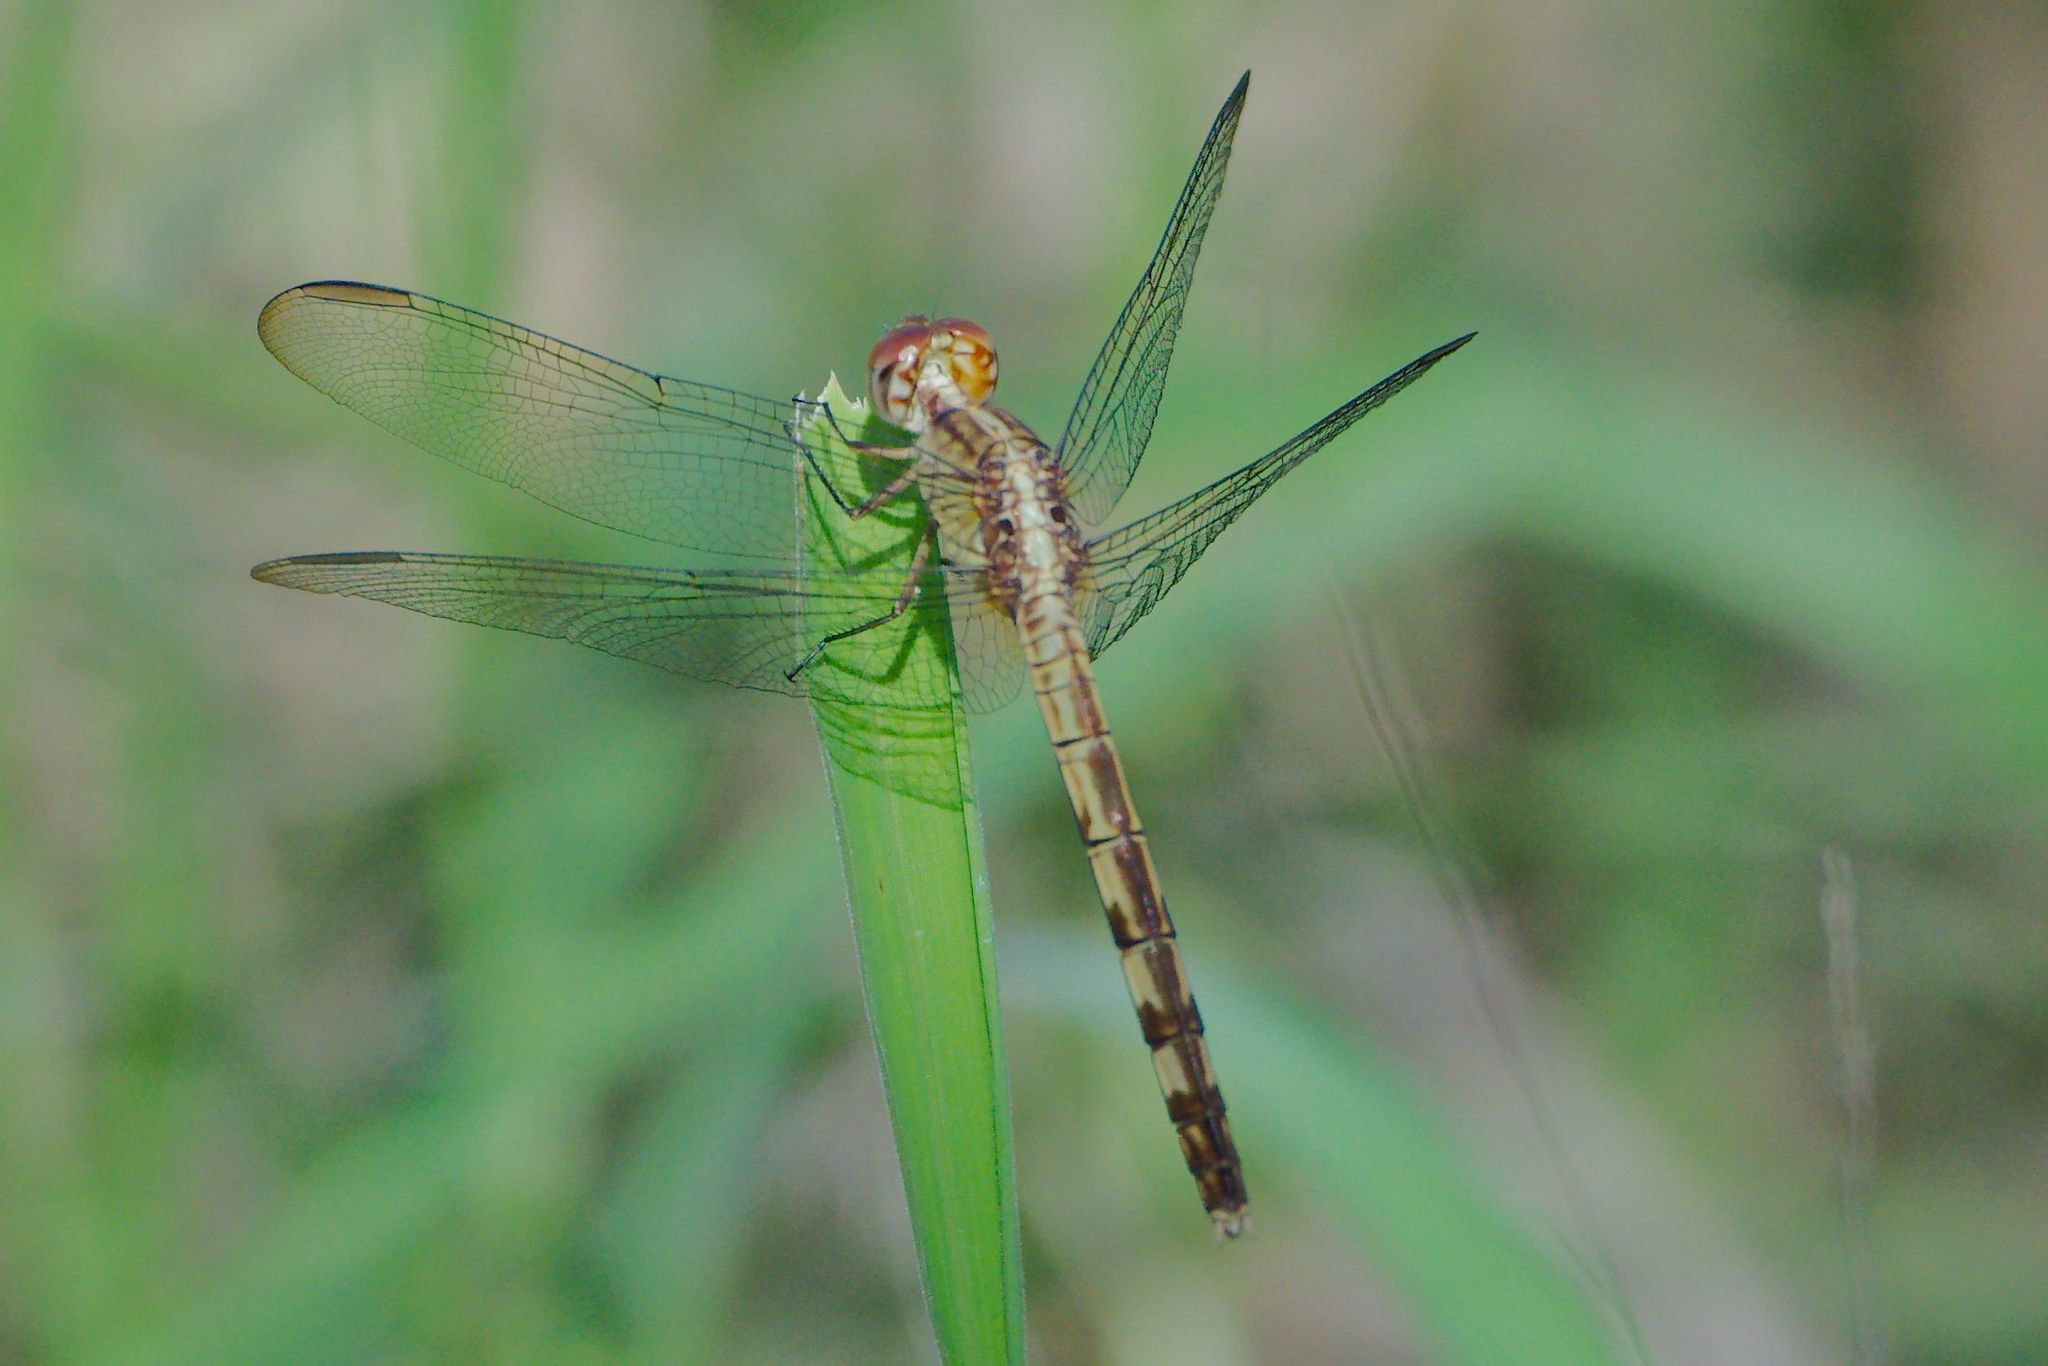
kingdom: Animalia
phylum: Arthropoda
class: Insecta
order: Odonata
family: Libellulidae
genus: Erythrodiplax
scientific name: Erythrodiplax umbrata
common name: Band-winged dragonlet
